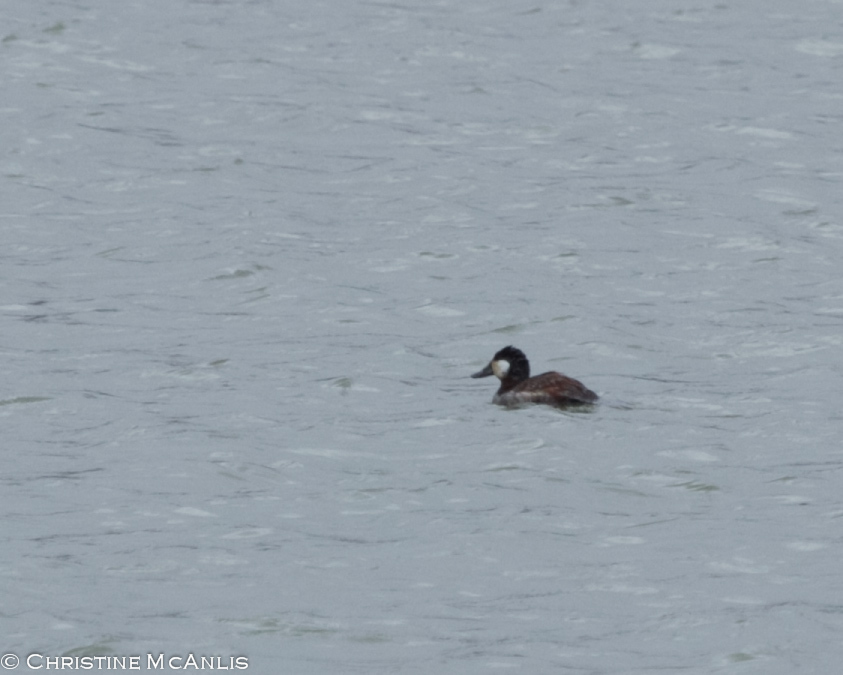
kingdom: Animalia
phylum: Chordata
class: Aves
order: Anseriformes
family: Anatidae
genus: Oxyura
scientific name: Oxyura jamaicensis
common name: Ruddy duck
